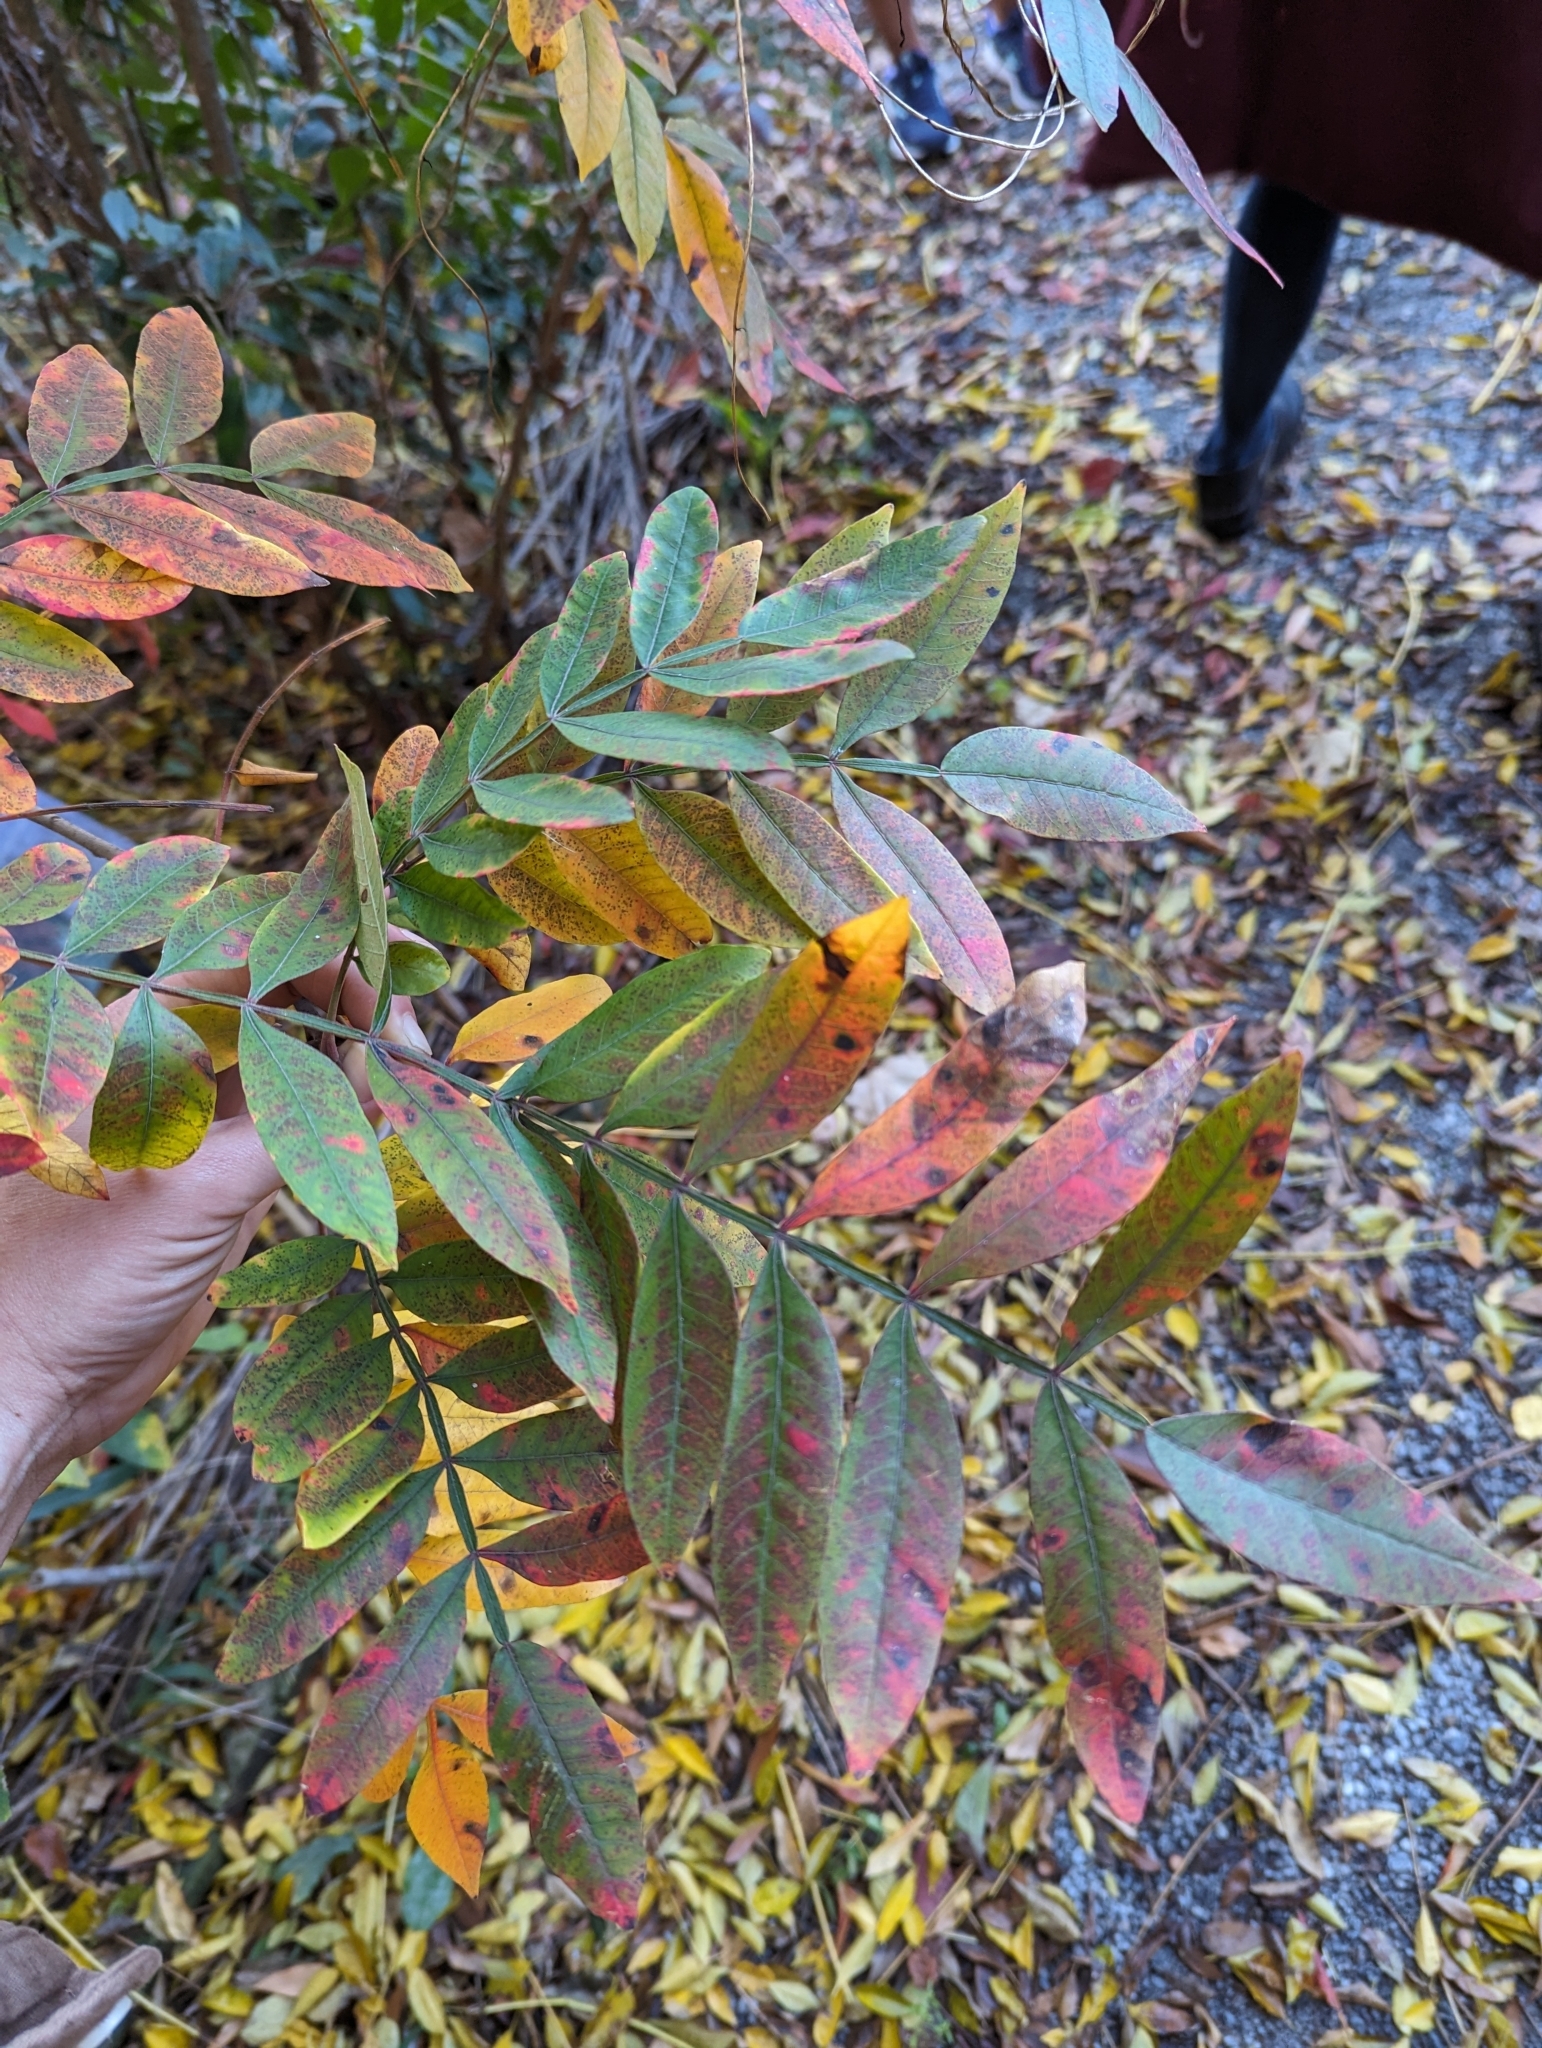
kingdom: Plantae
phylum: Tracheophyta
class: Magnoliopsida
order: Sapindales
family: Anacardiaceae
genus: Rhus
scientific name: Rhus copallina
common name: Shining sumac
